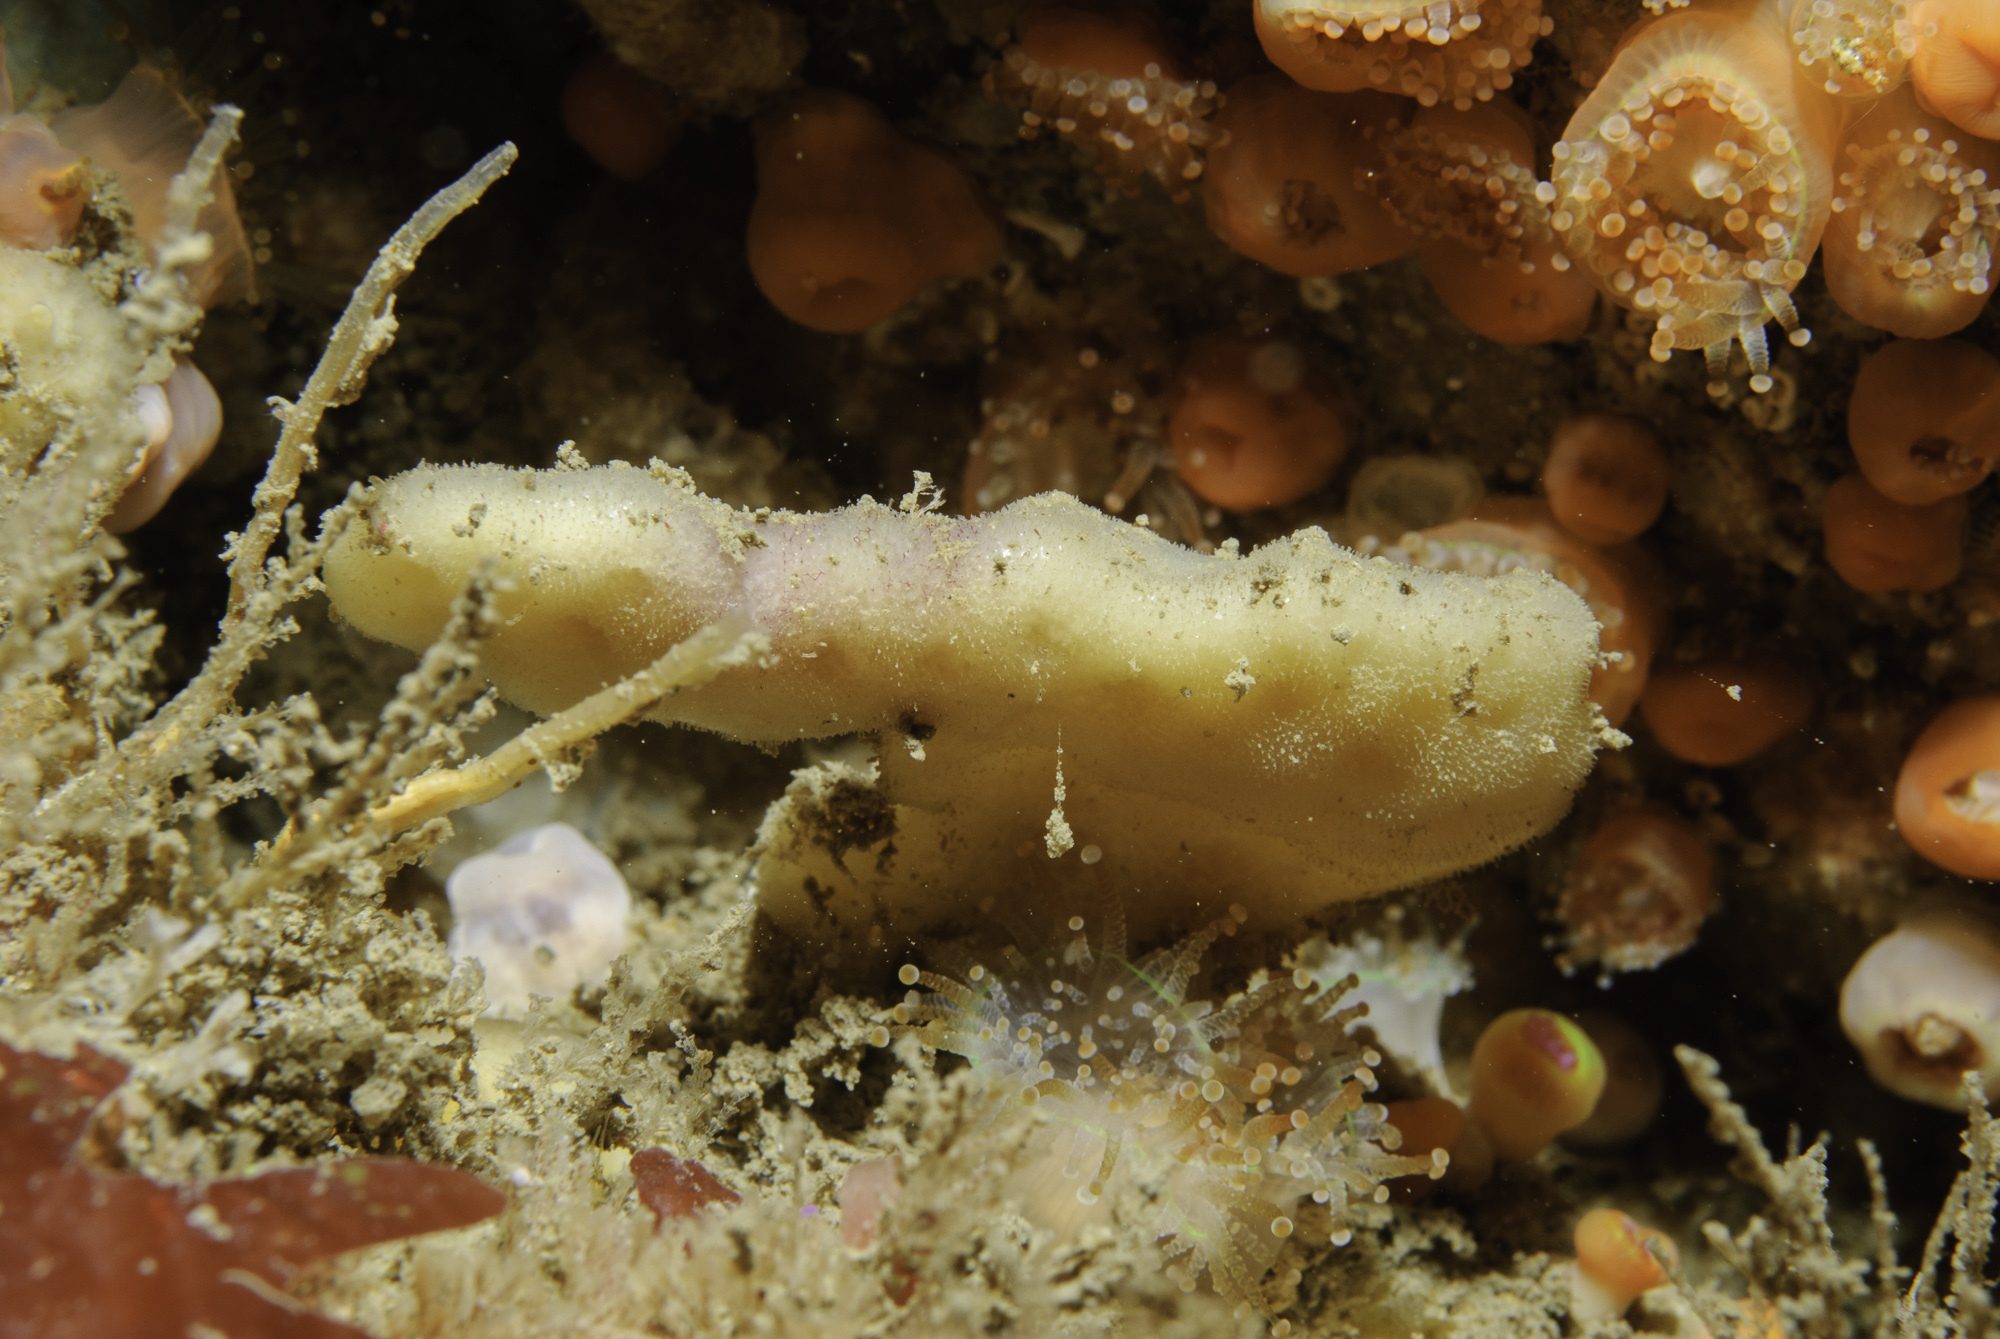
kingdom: Animalia
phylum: Porifera
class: Demospongiae
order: Dendroceratida
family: Dictyodendrillidae
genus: Spongionella
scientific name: Spongionella pulchella
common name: Gorgeous horny sponge
